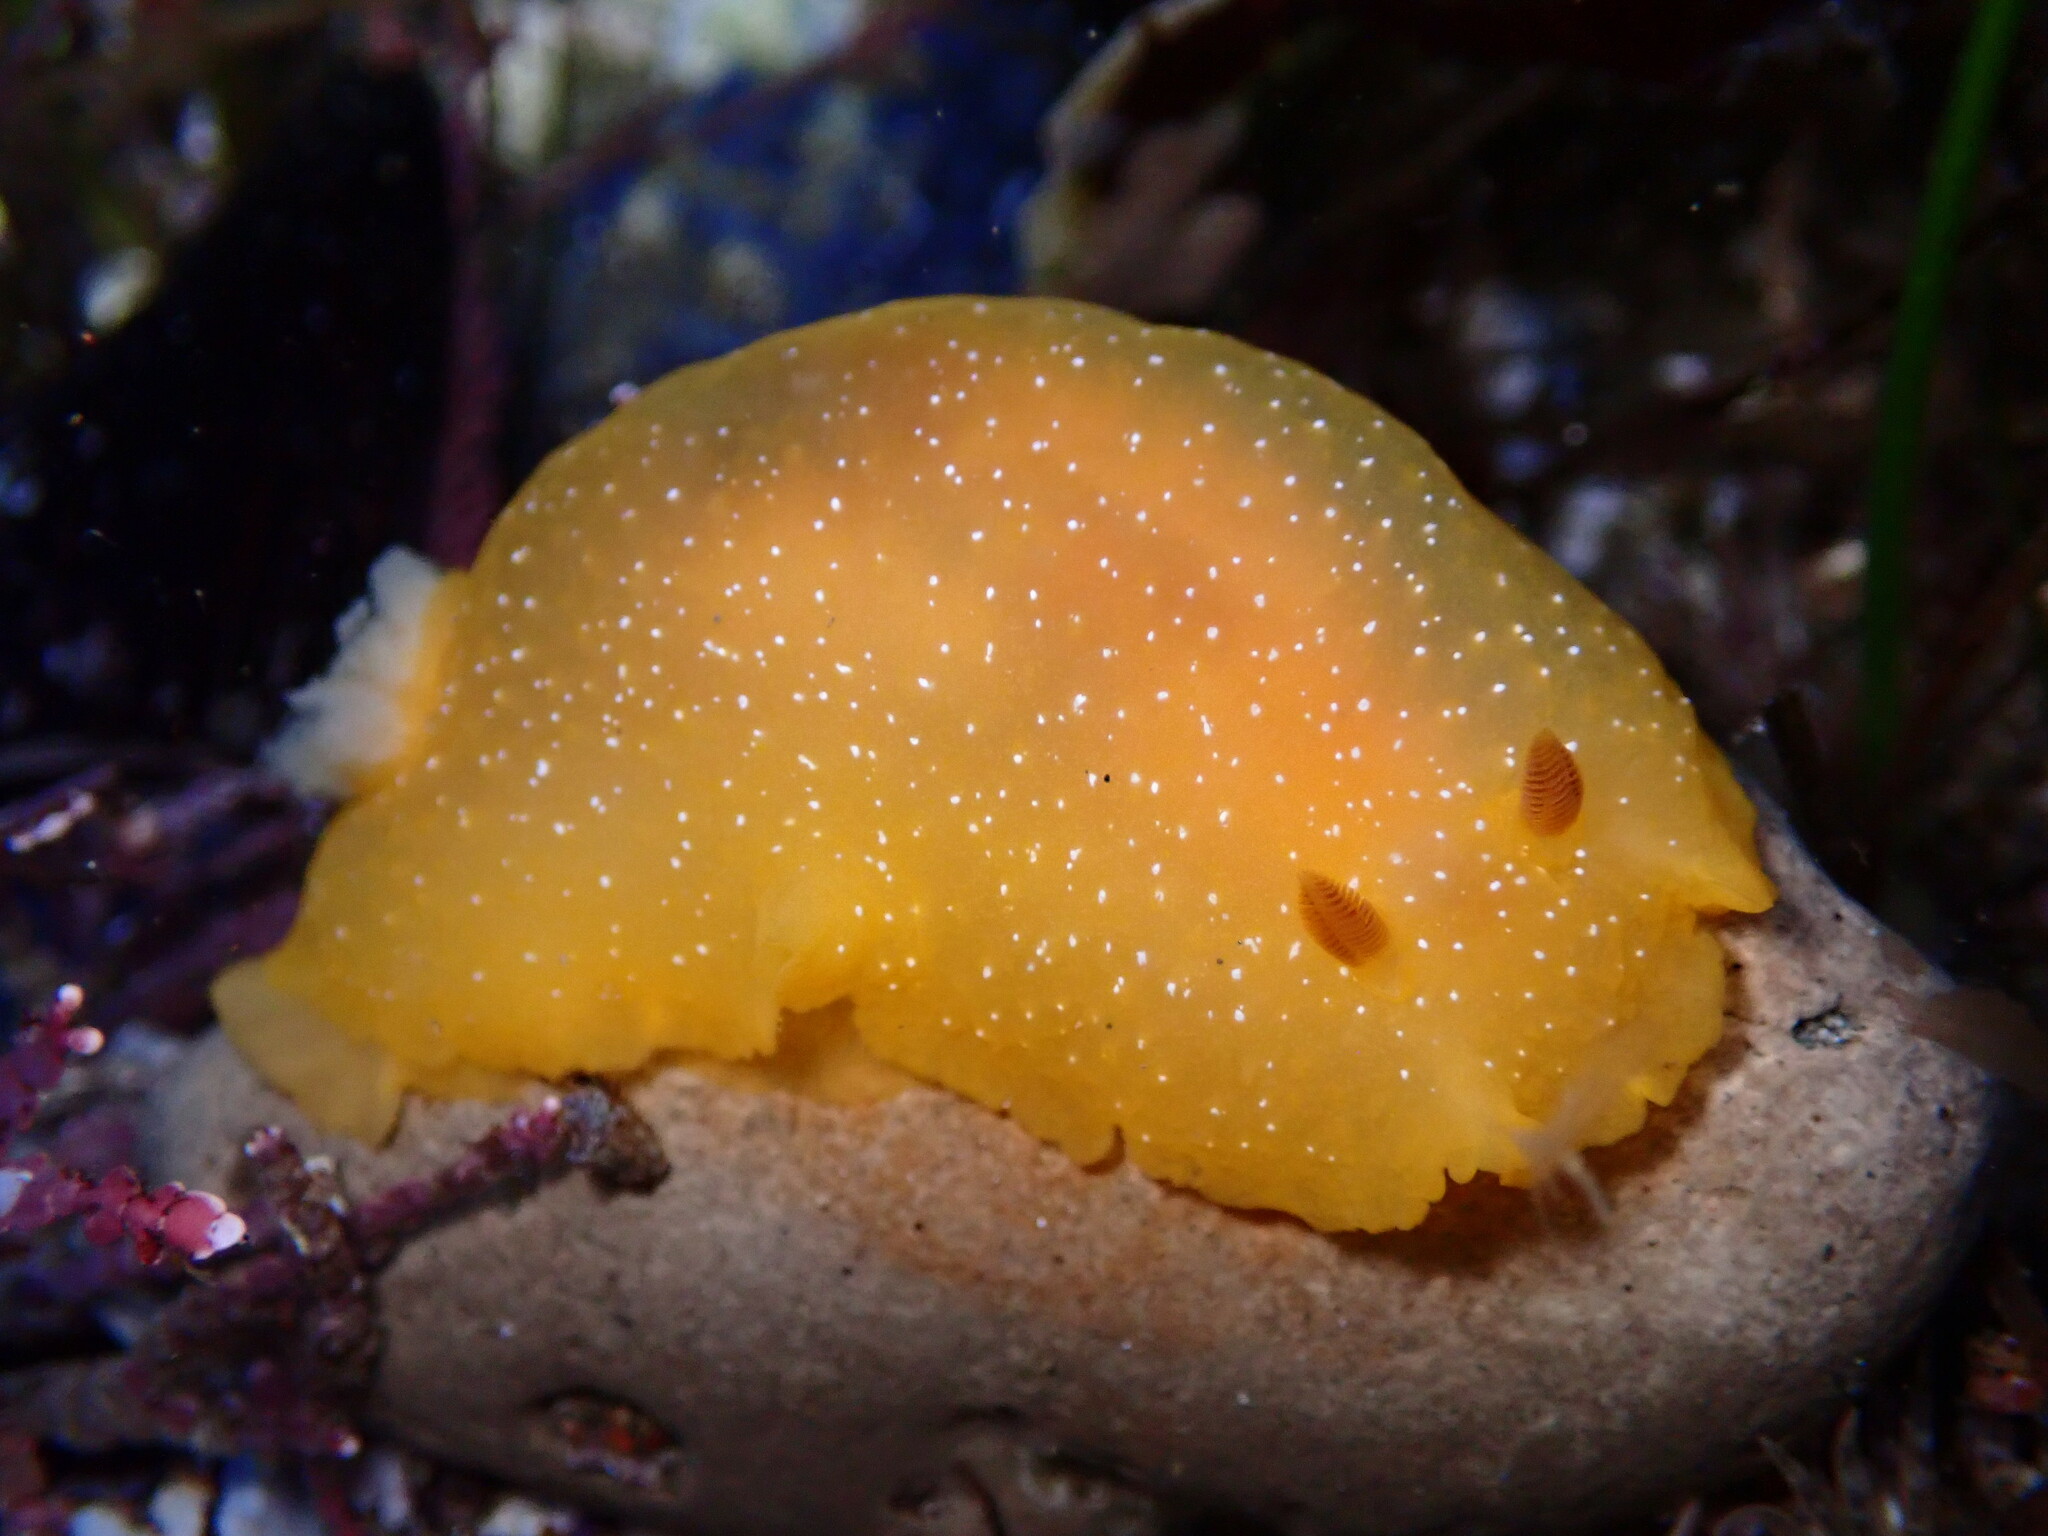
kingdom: Animalia
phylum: Mollusca
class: Gastropoda
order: Nudibranchia
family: Dendrodorididae
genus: Doriopsilla
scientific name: Doriopsilla fulva
